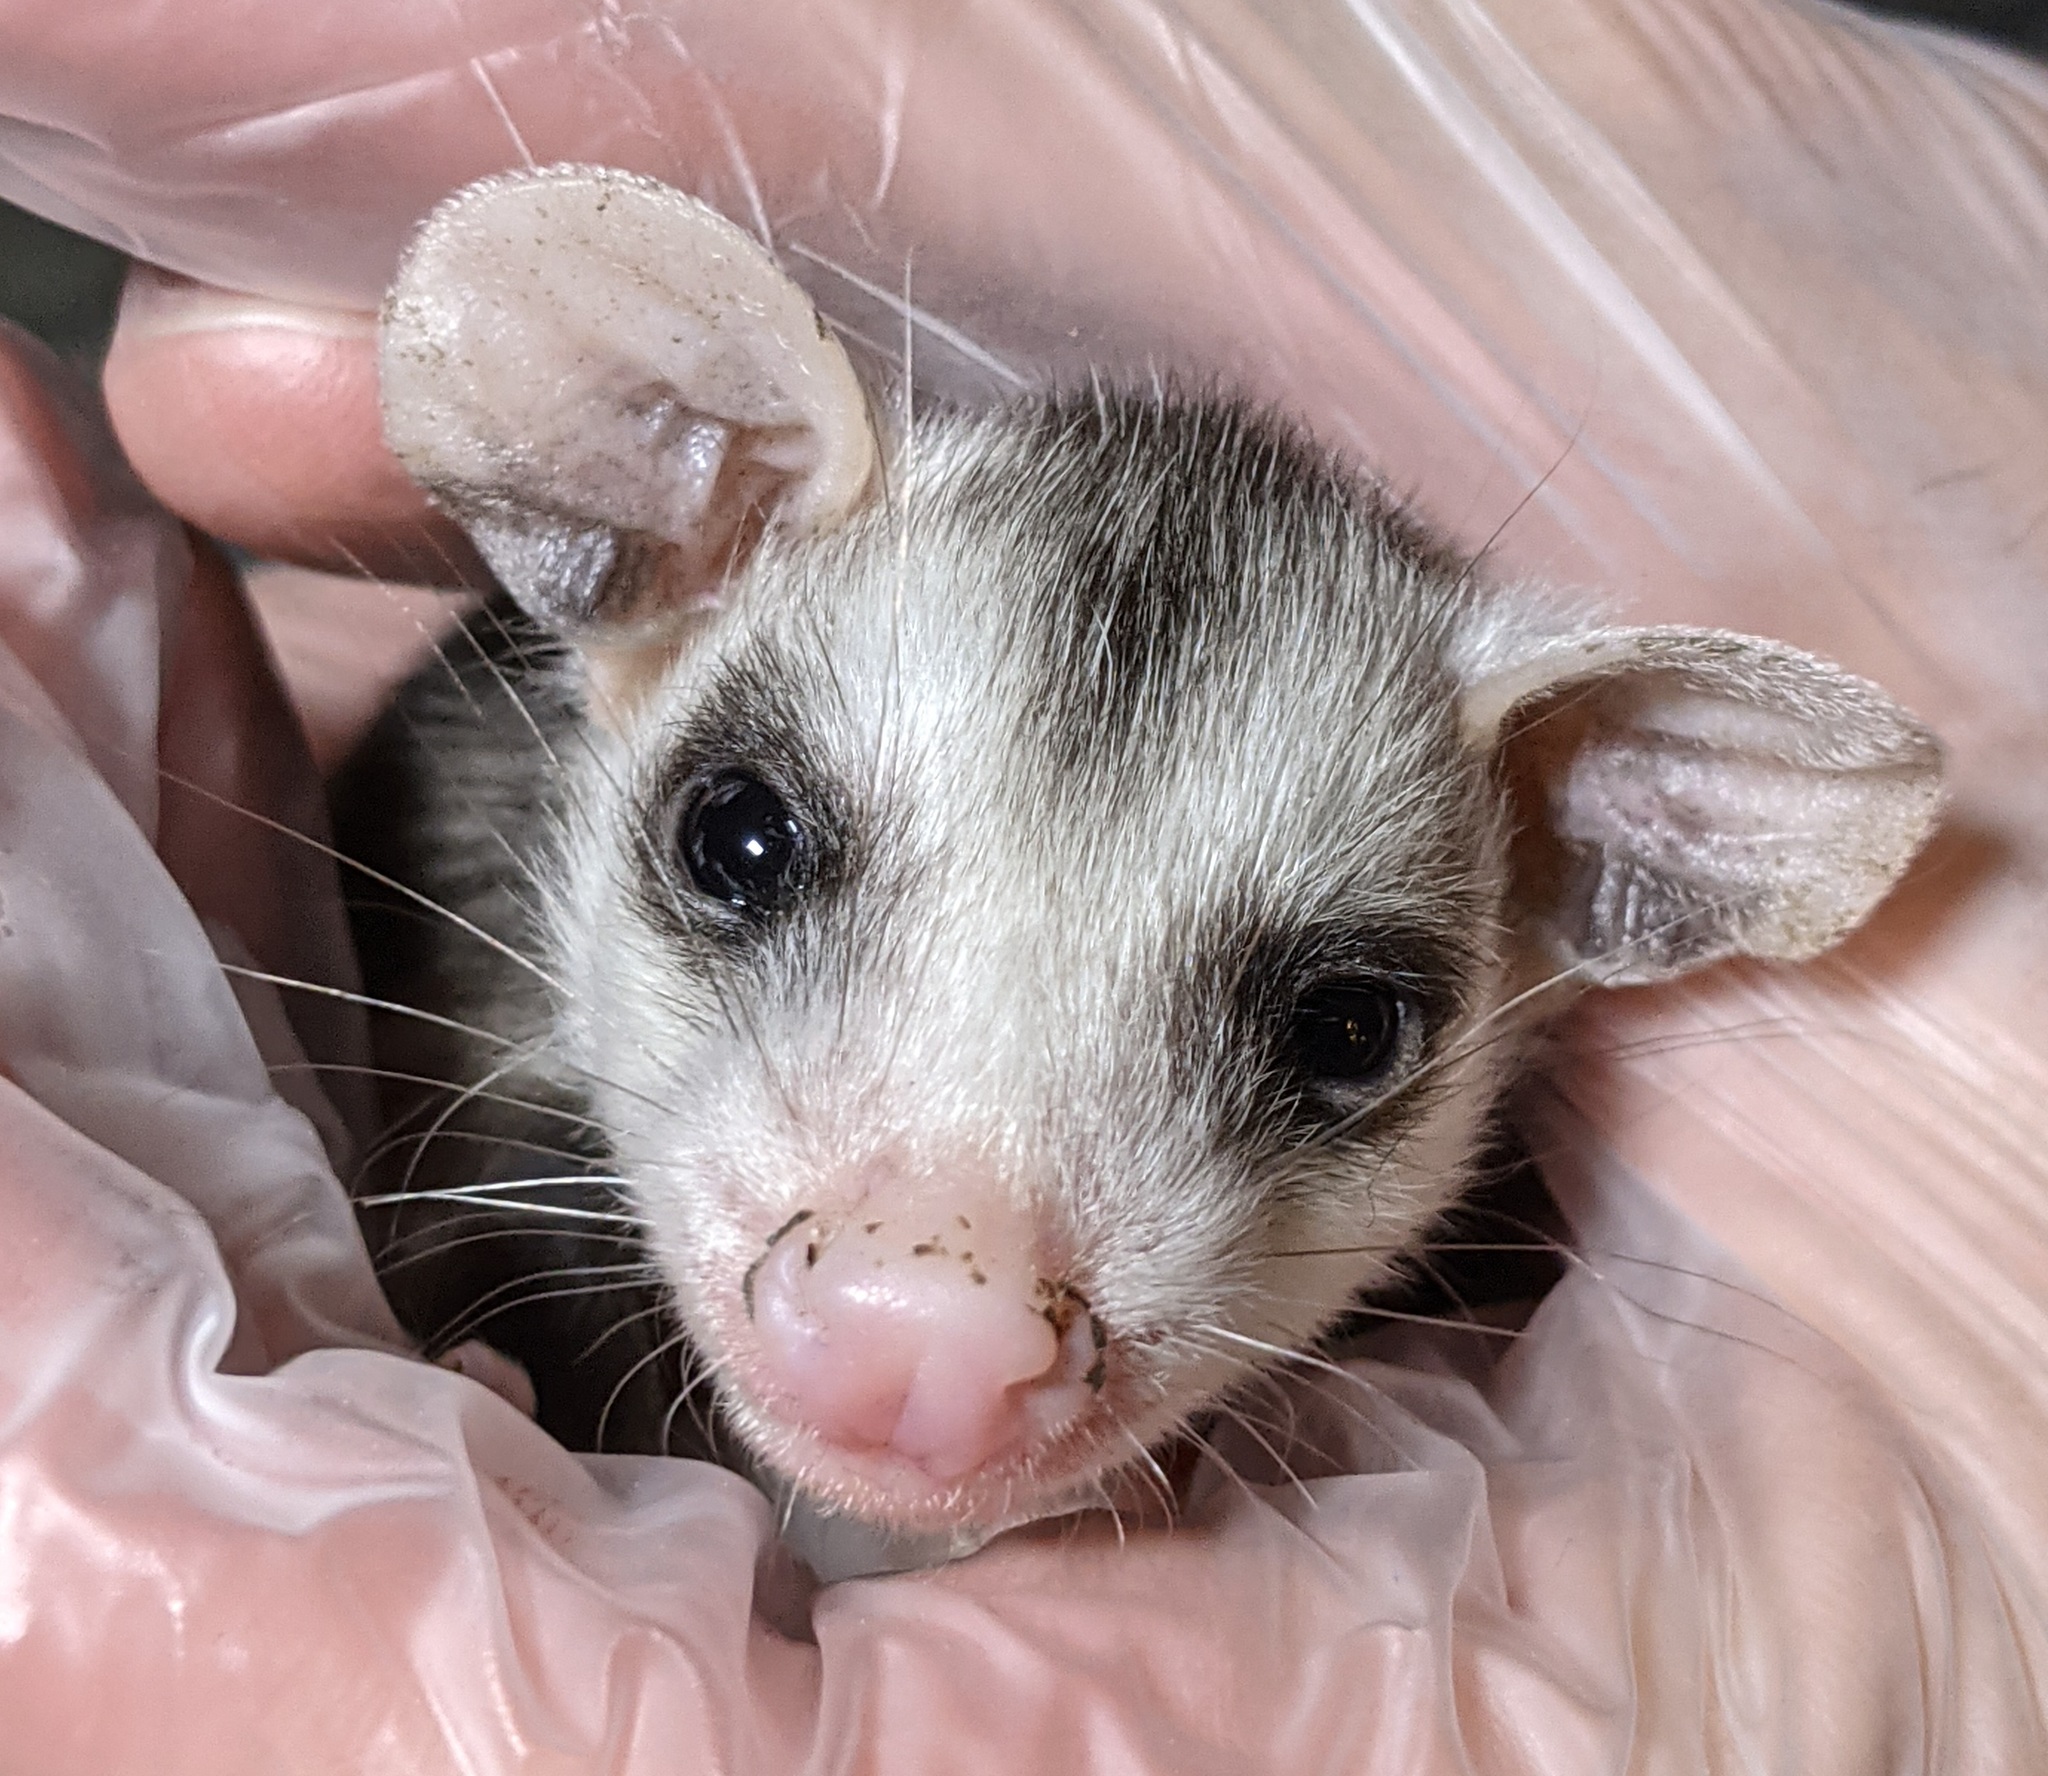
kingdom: Animalia
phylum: Chordata
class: Mammalia
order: Didelphimorphia
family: Didelphidae
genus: Didelphis
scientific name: Didelphis virginiana
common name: Virginia opossum
